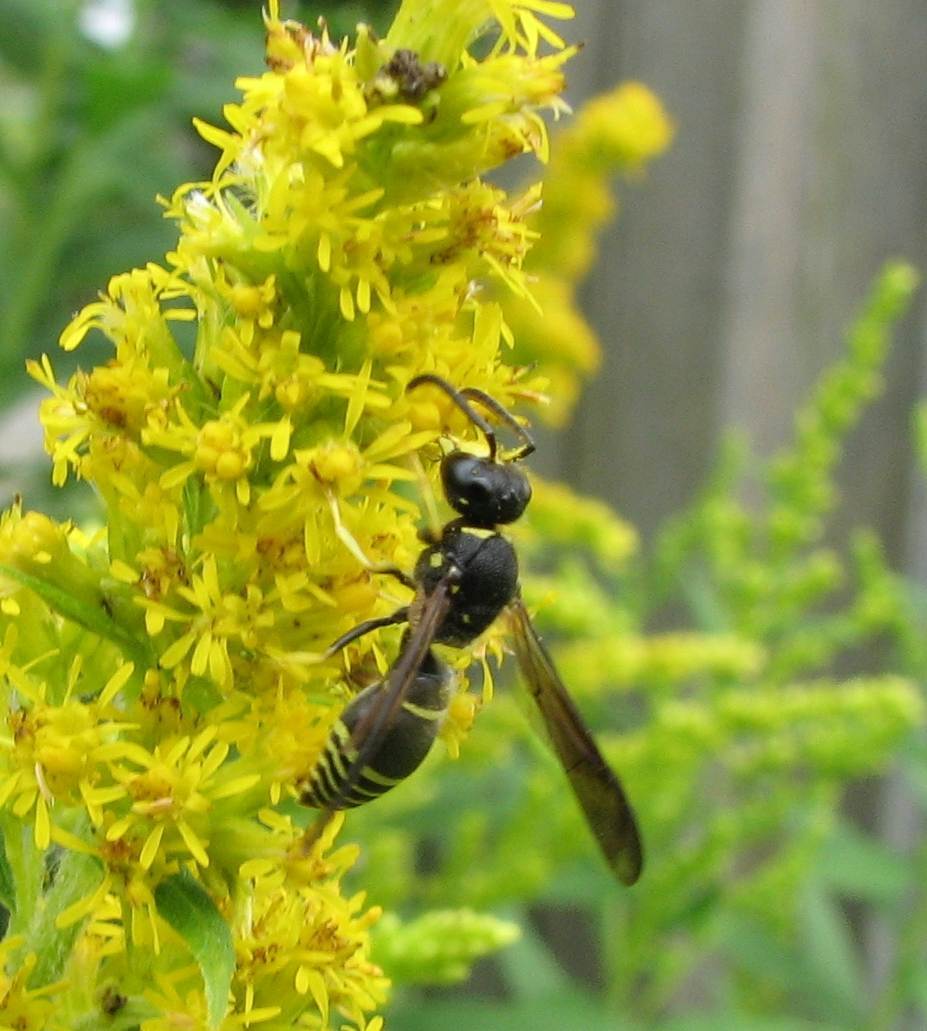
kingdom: Animalia
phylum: Arthropoda
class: Insecta
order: Hymenoptera
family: Vespidae
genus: Ancistrocerus
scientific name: Ancistrocerus
